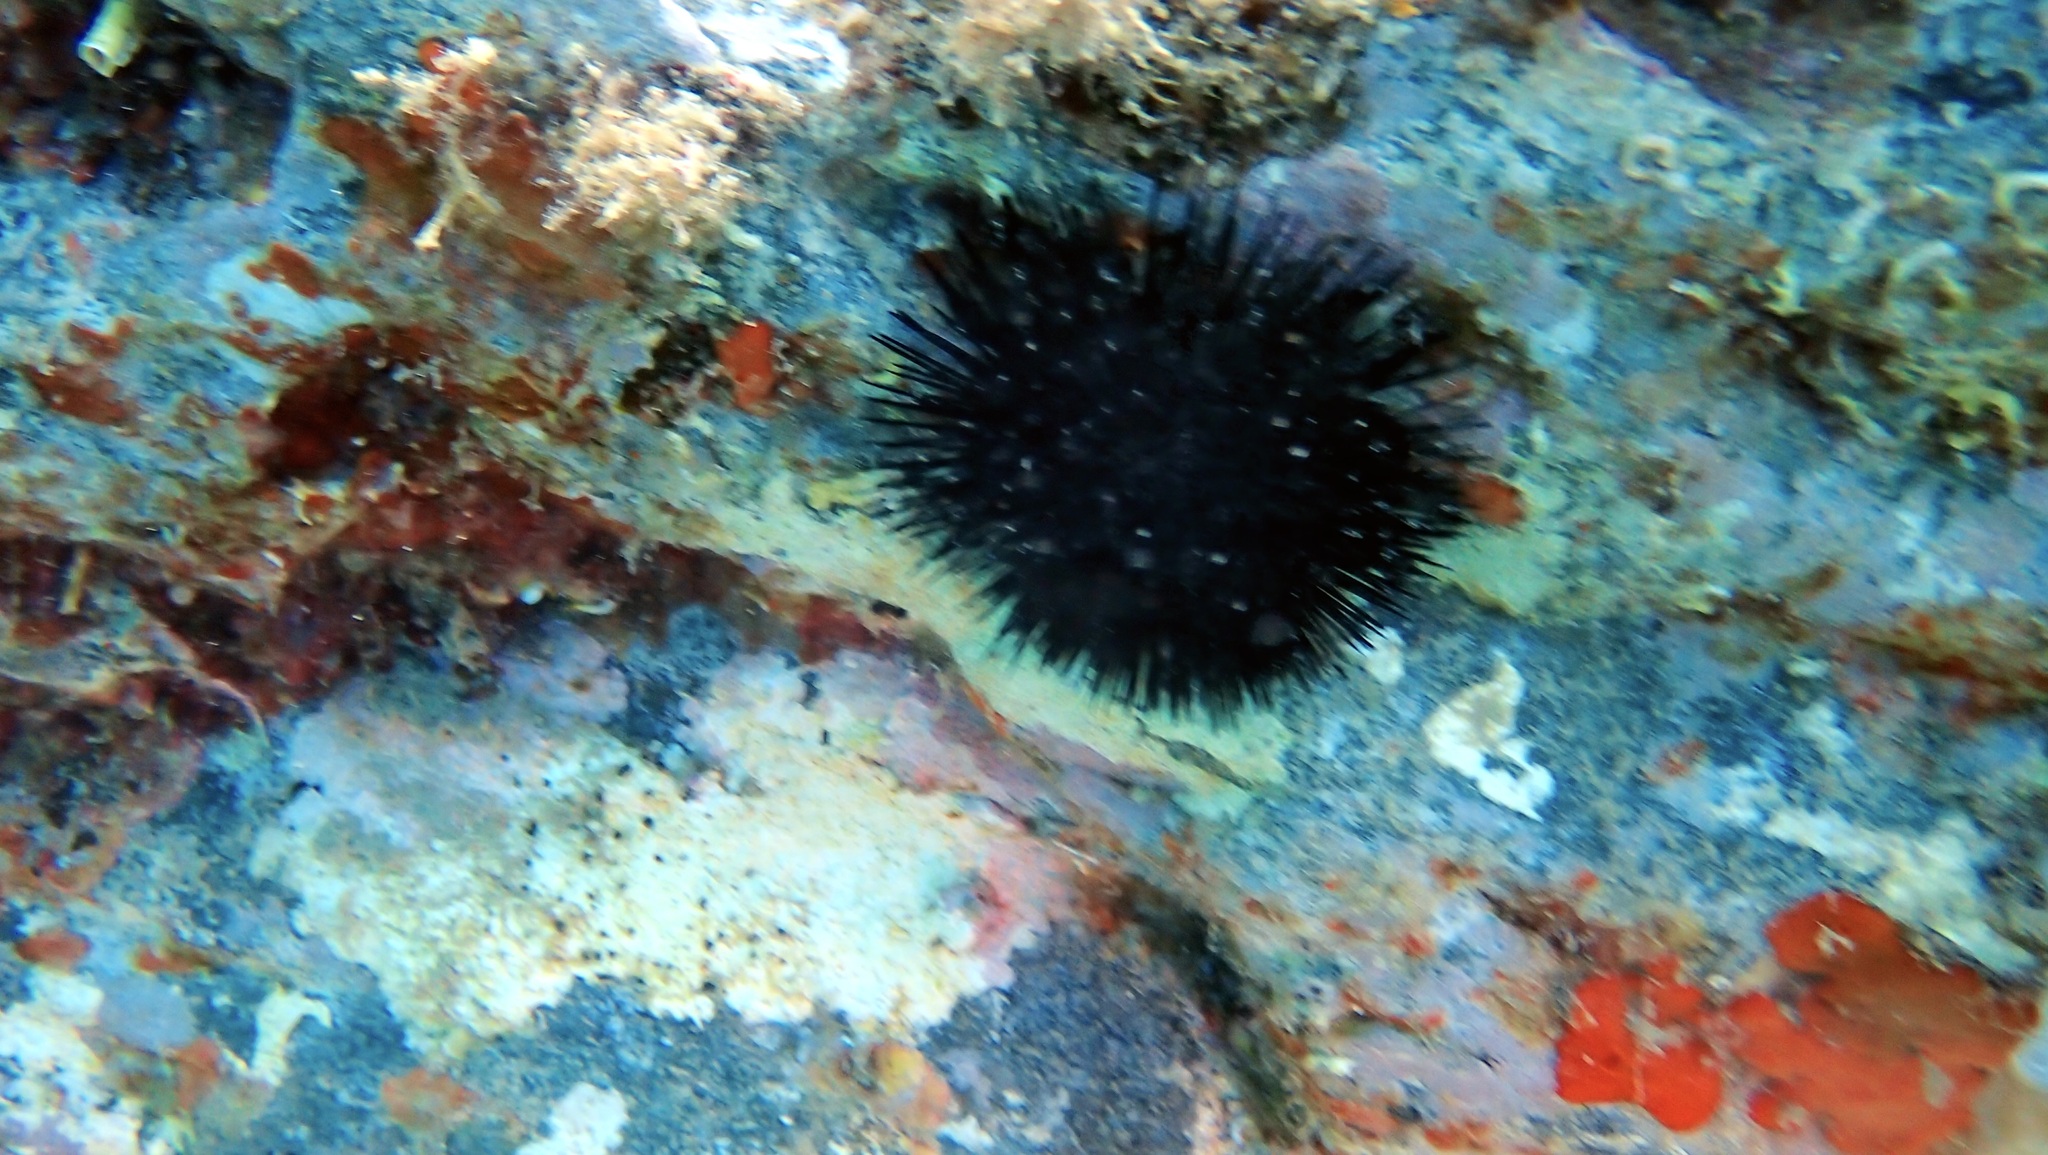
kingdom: Animalia
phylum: Echinodermata
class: Echinoidea
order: Arbacioida
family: Arbaciidae
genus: Arbacia
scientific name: Arbacia lixula
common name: Black sea urchin
